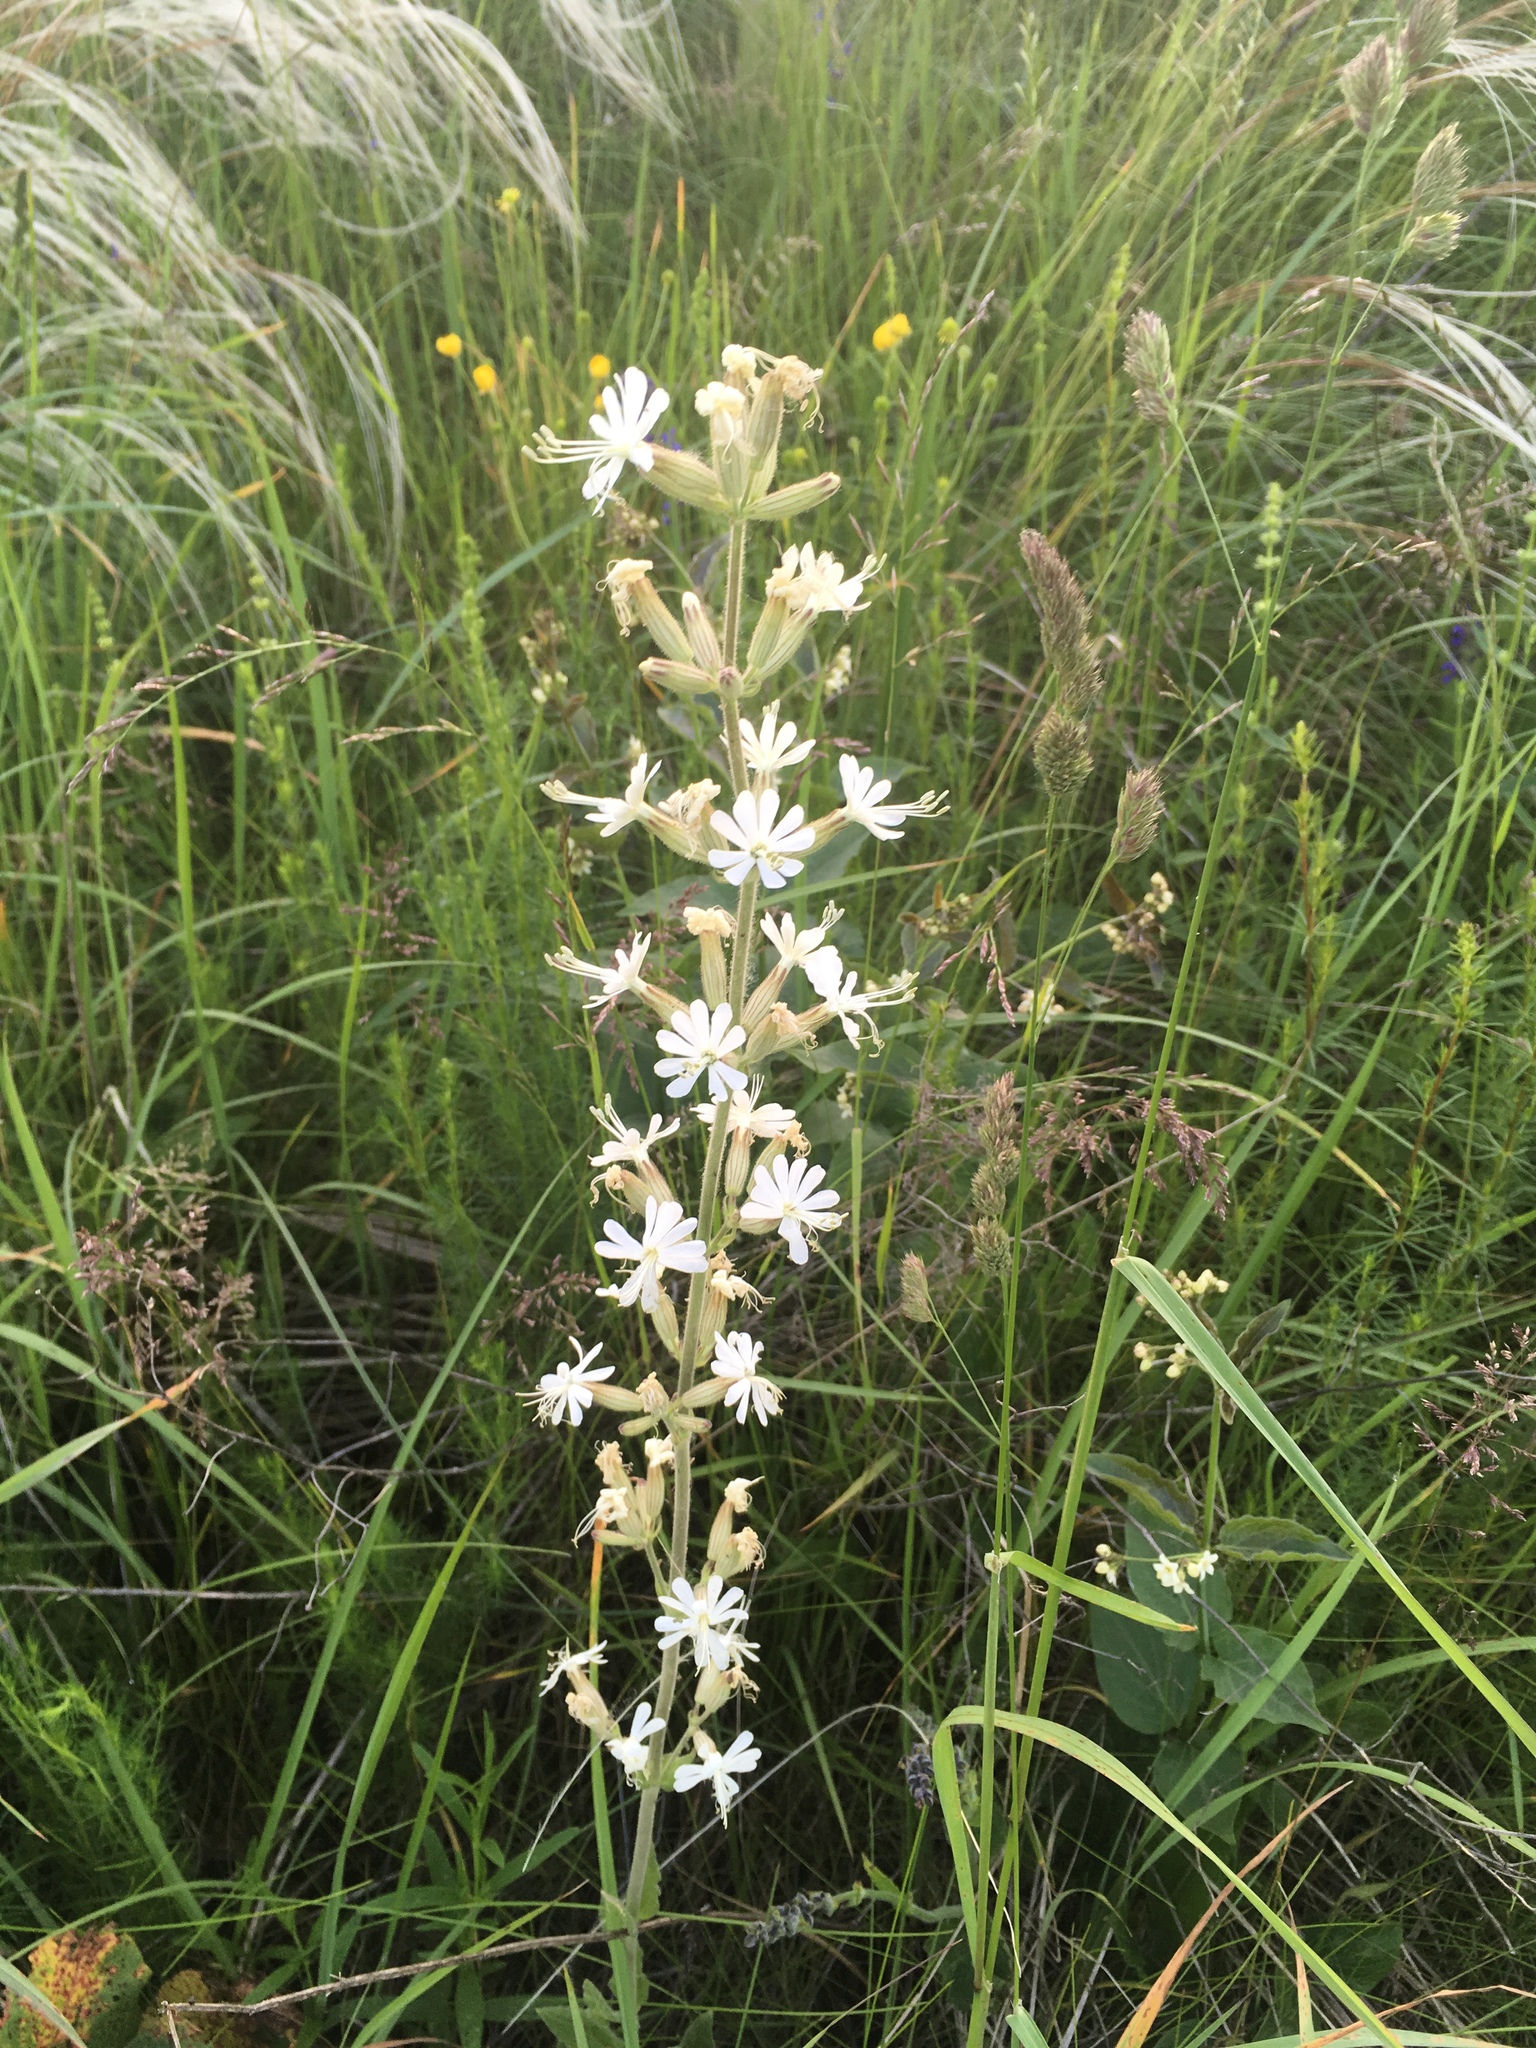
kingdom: Plantae
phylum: Tracheophyta
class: Magnoliopsida
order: Caryophyllales
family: Caryophyllaceae
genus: Silene
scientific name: Silene viscosa
